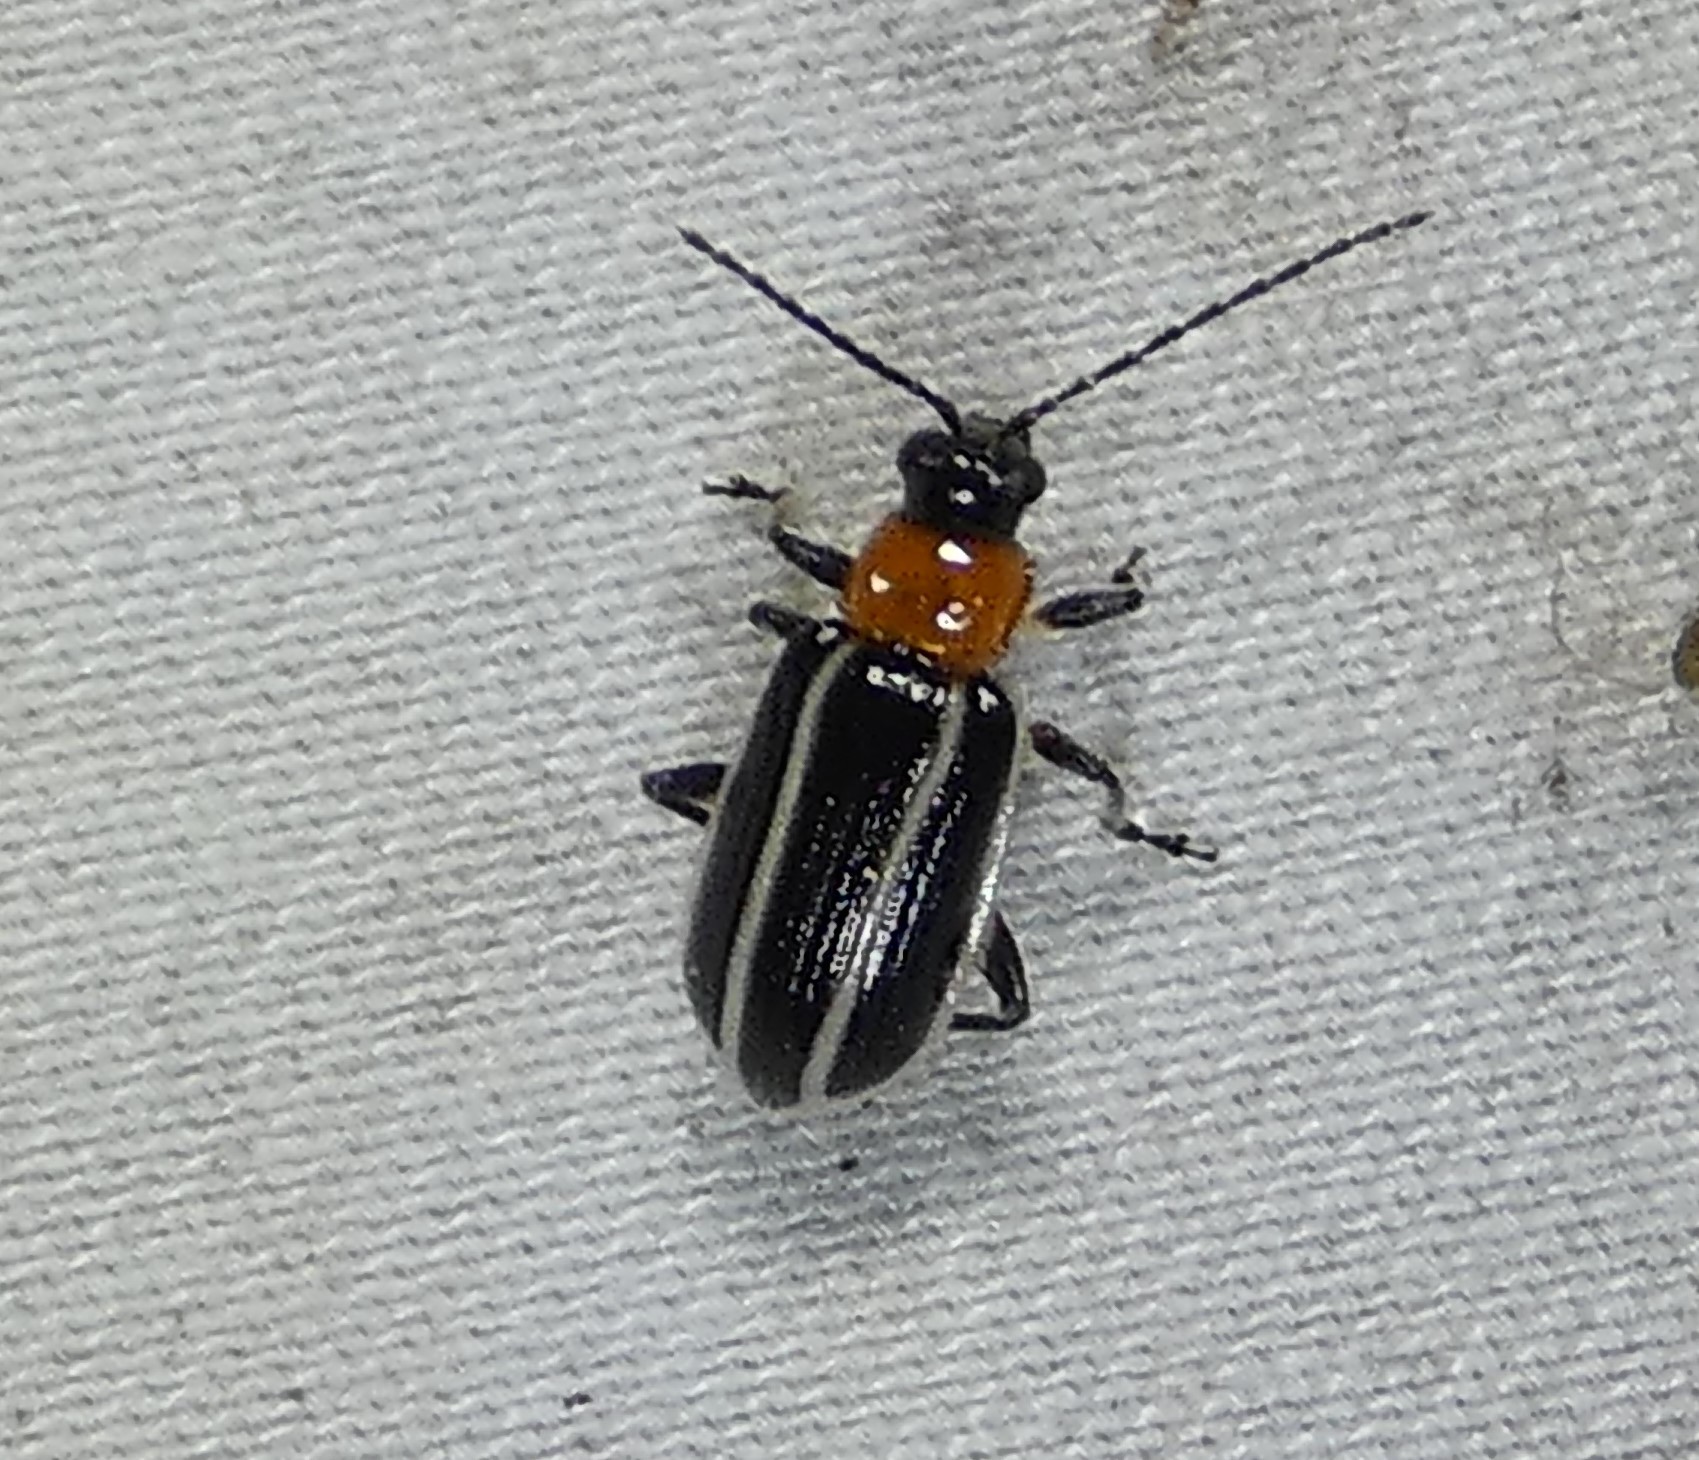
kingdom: Animalia
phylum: Arthropoda
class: Insecta
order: Coleoptera
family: Chrysomelidae
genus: Acalymma
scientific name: Acalymma vinctum
